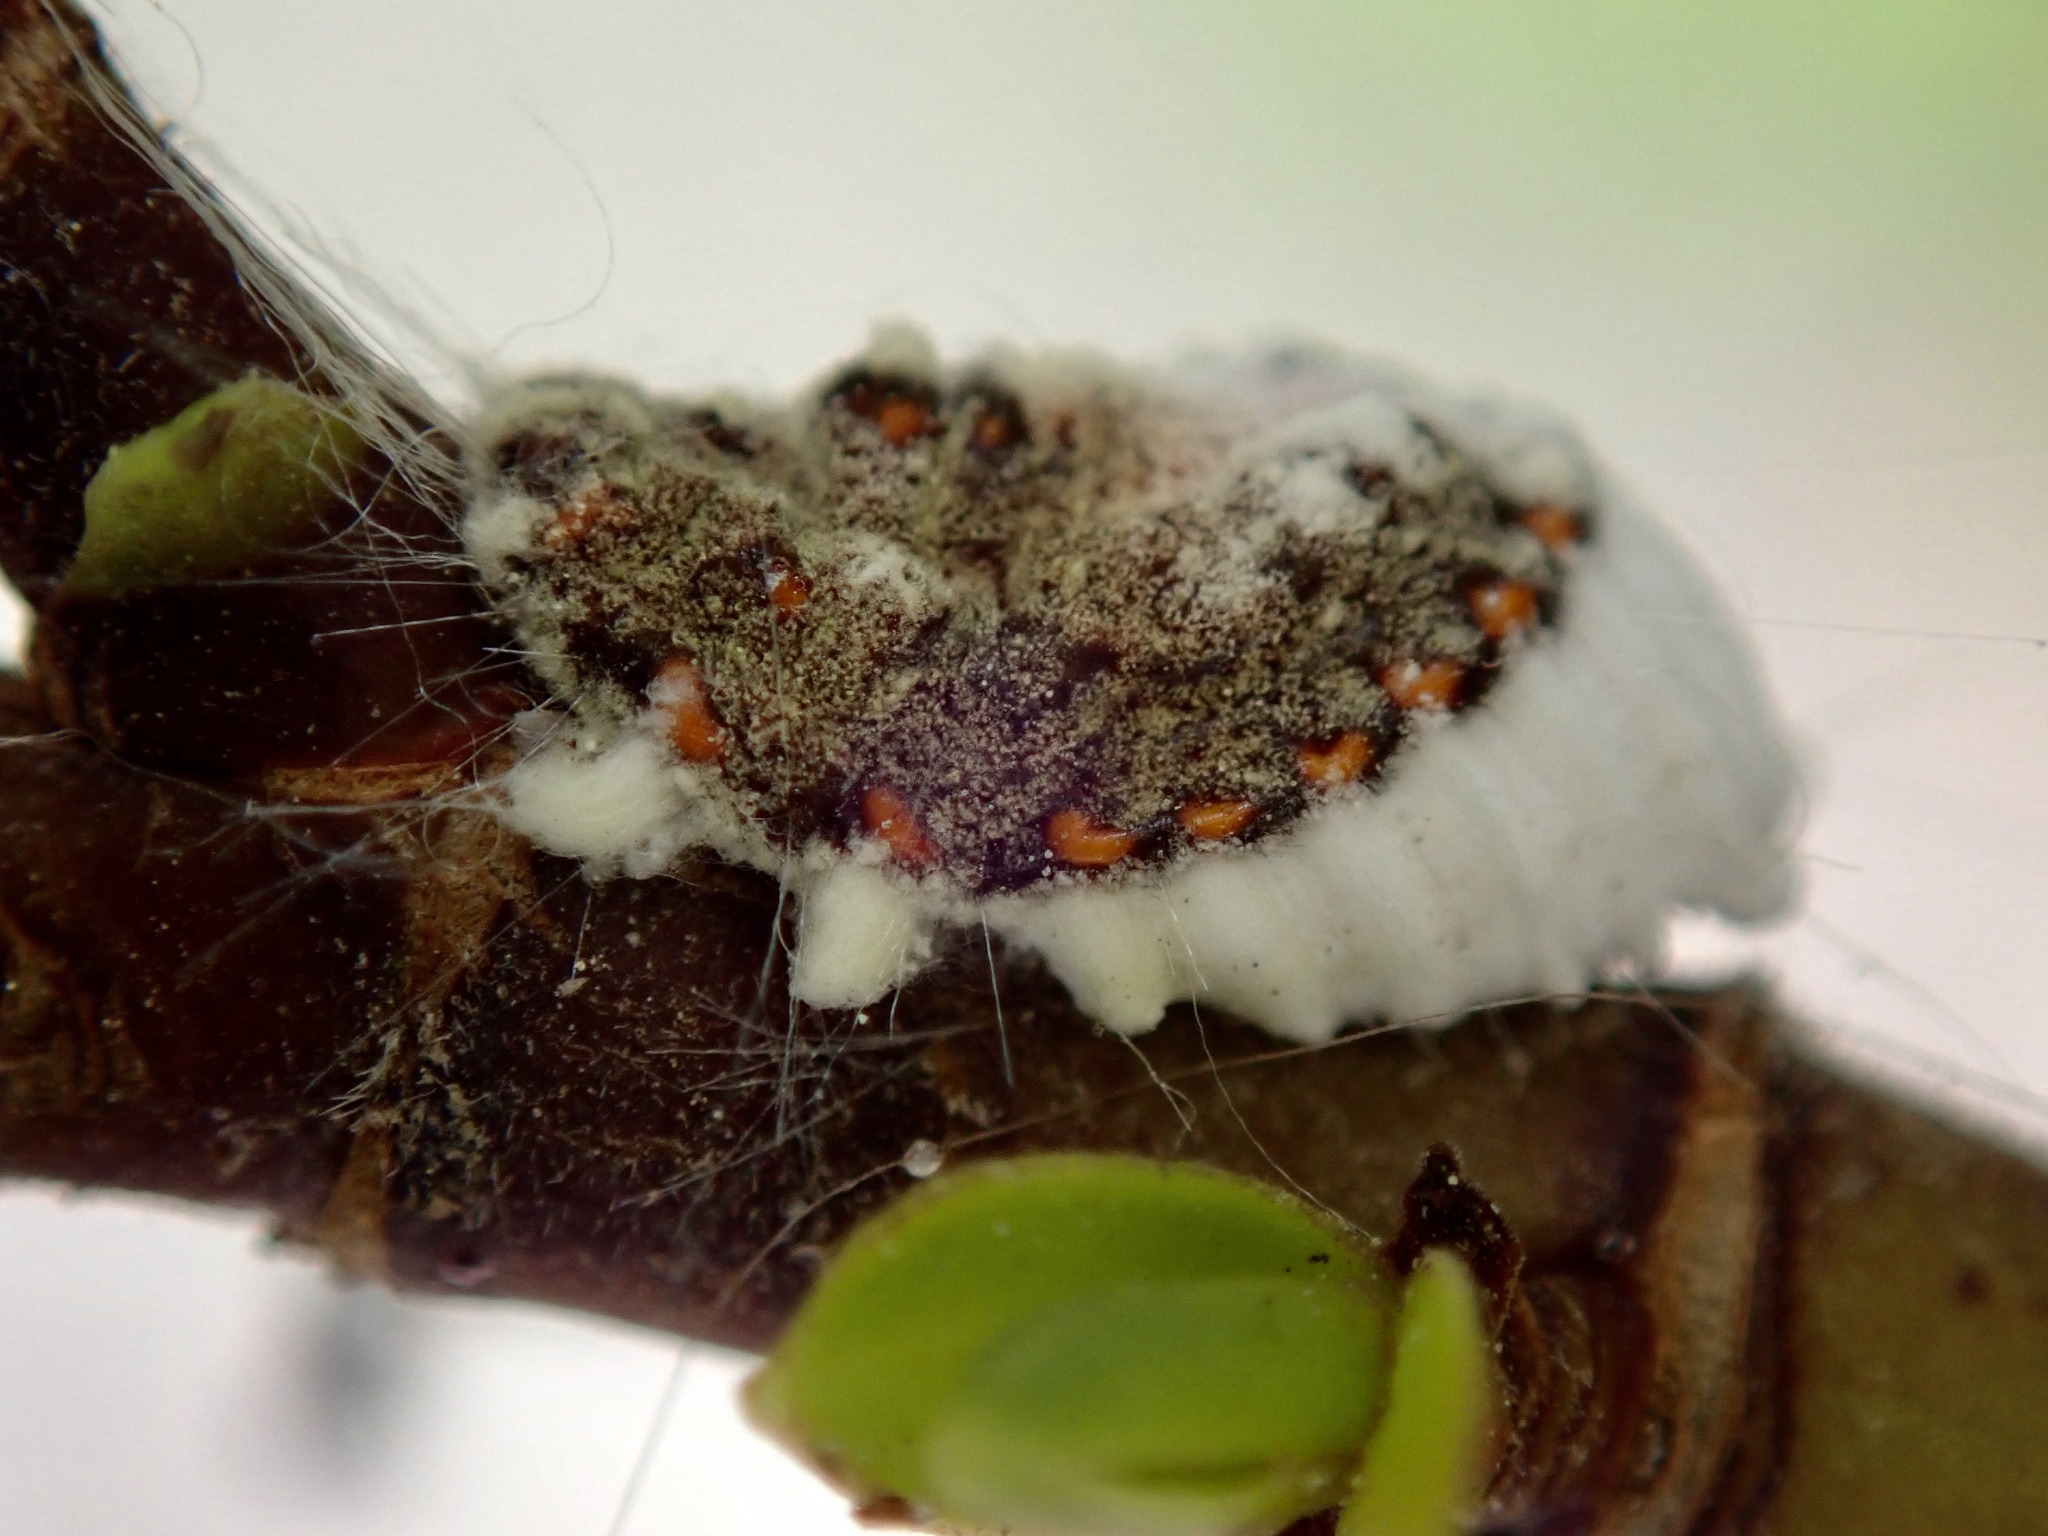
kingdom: Animalia
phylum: Arthropoda
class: Insecta
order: Hemiptera
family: Margarodidae
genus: Icerya
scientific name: Icerya purchasi
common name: Cottony cushion scale
